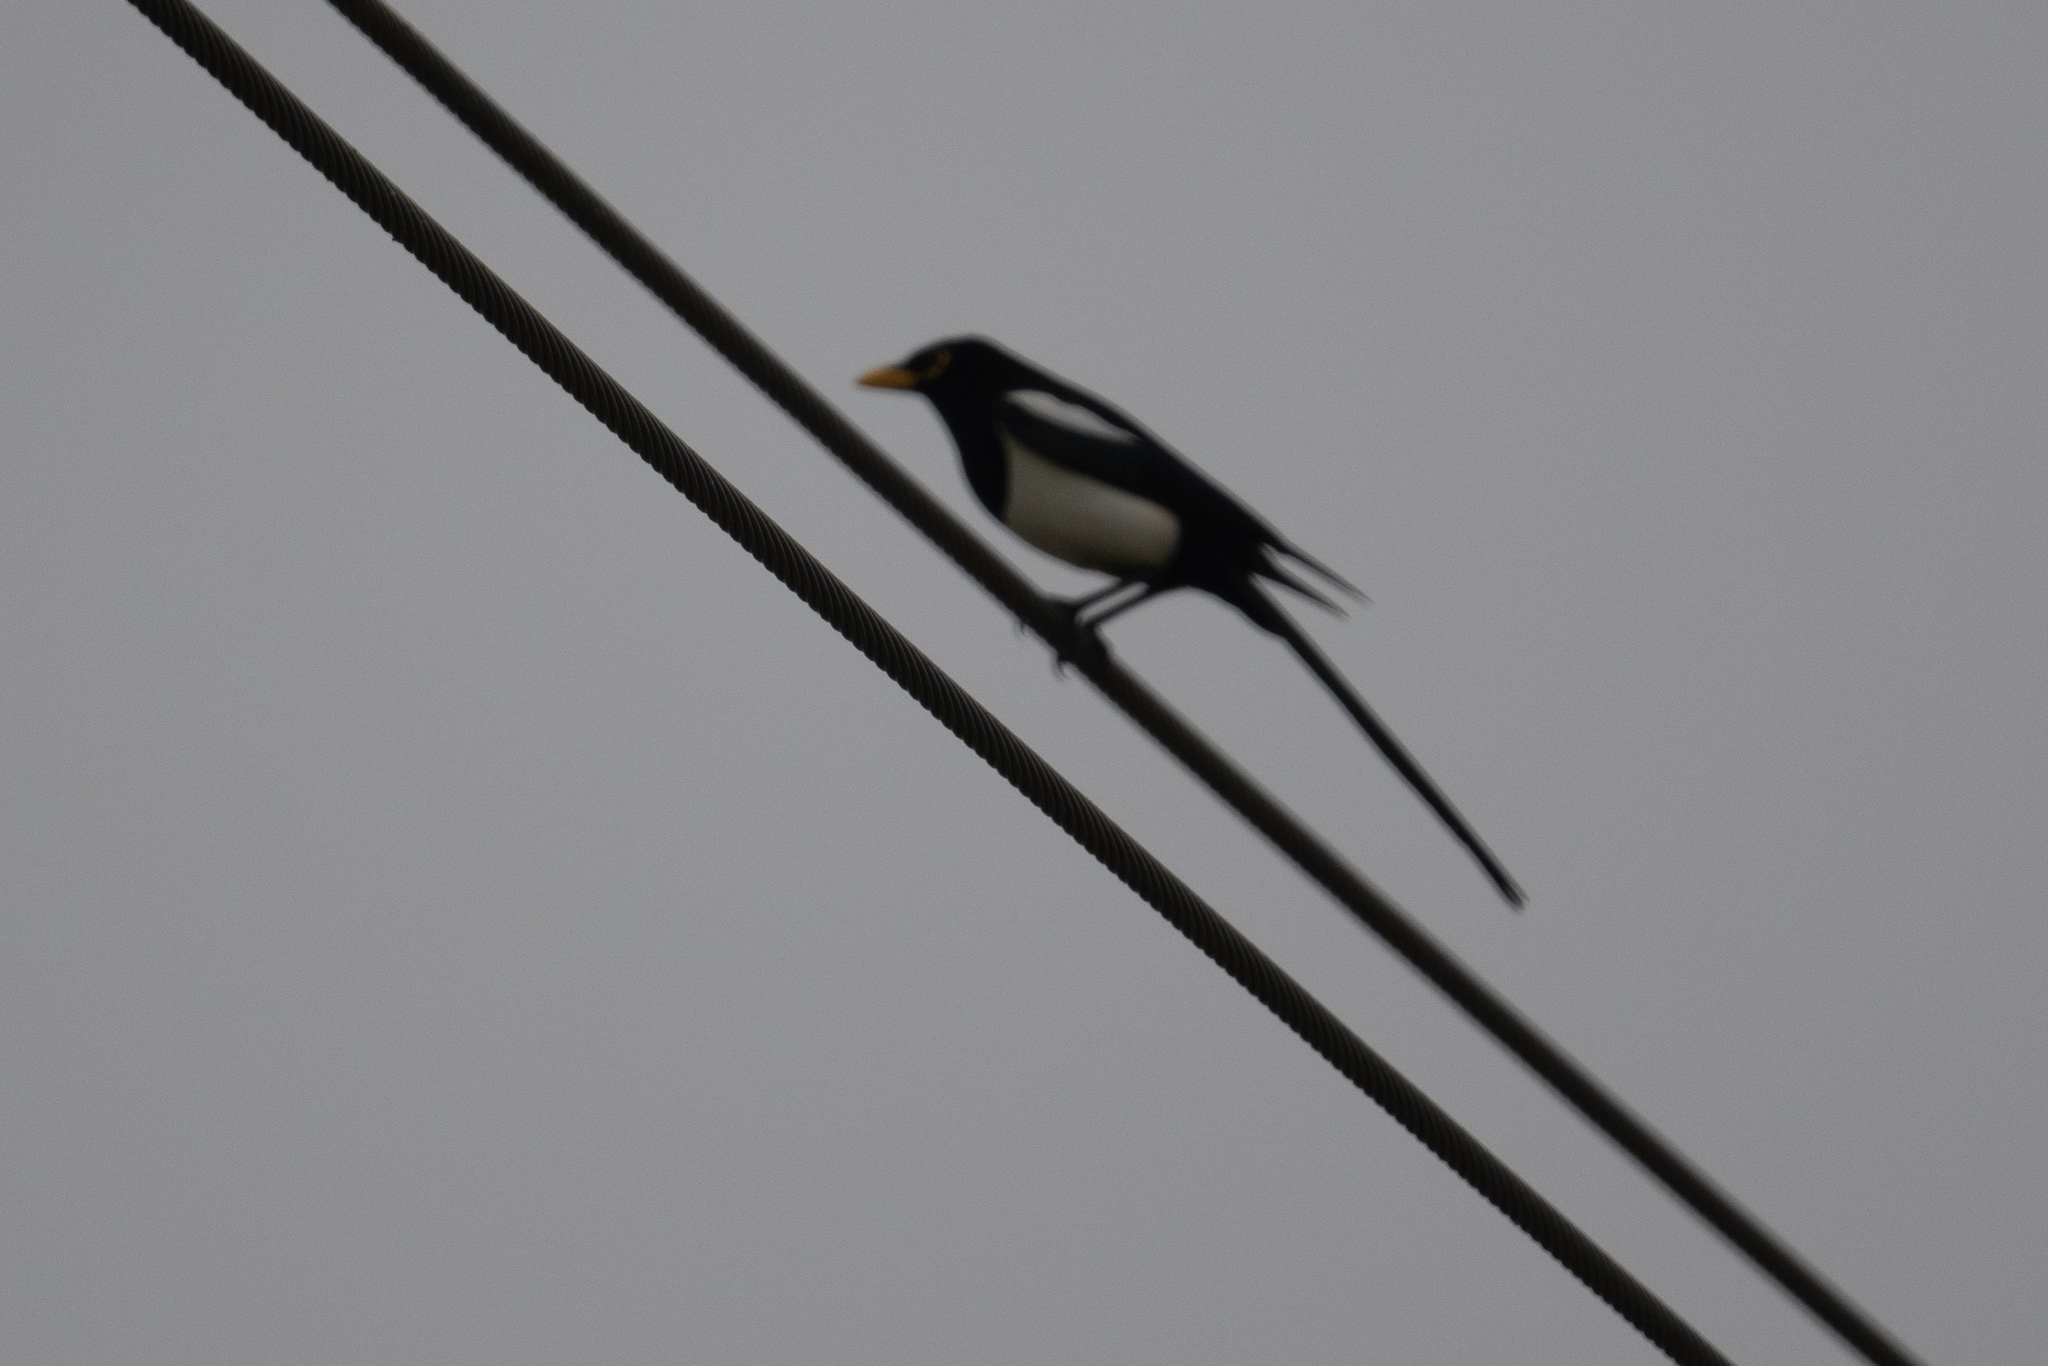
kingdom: Animalia
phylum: Chordata
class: Aves
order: Passeriformes
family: Corvidae
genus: Pica
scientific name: Pica nuttalli
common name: Yellow-billed magpie
